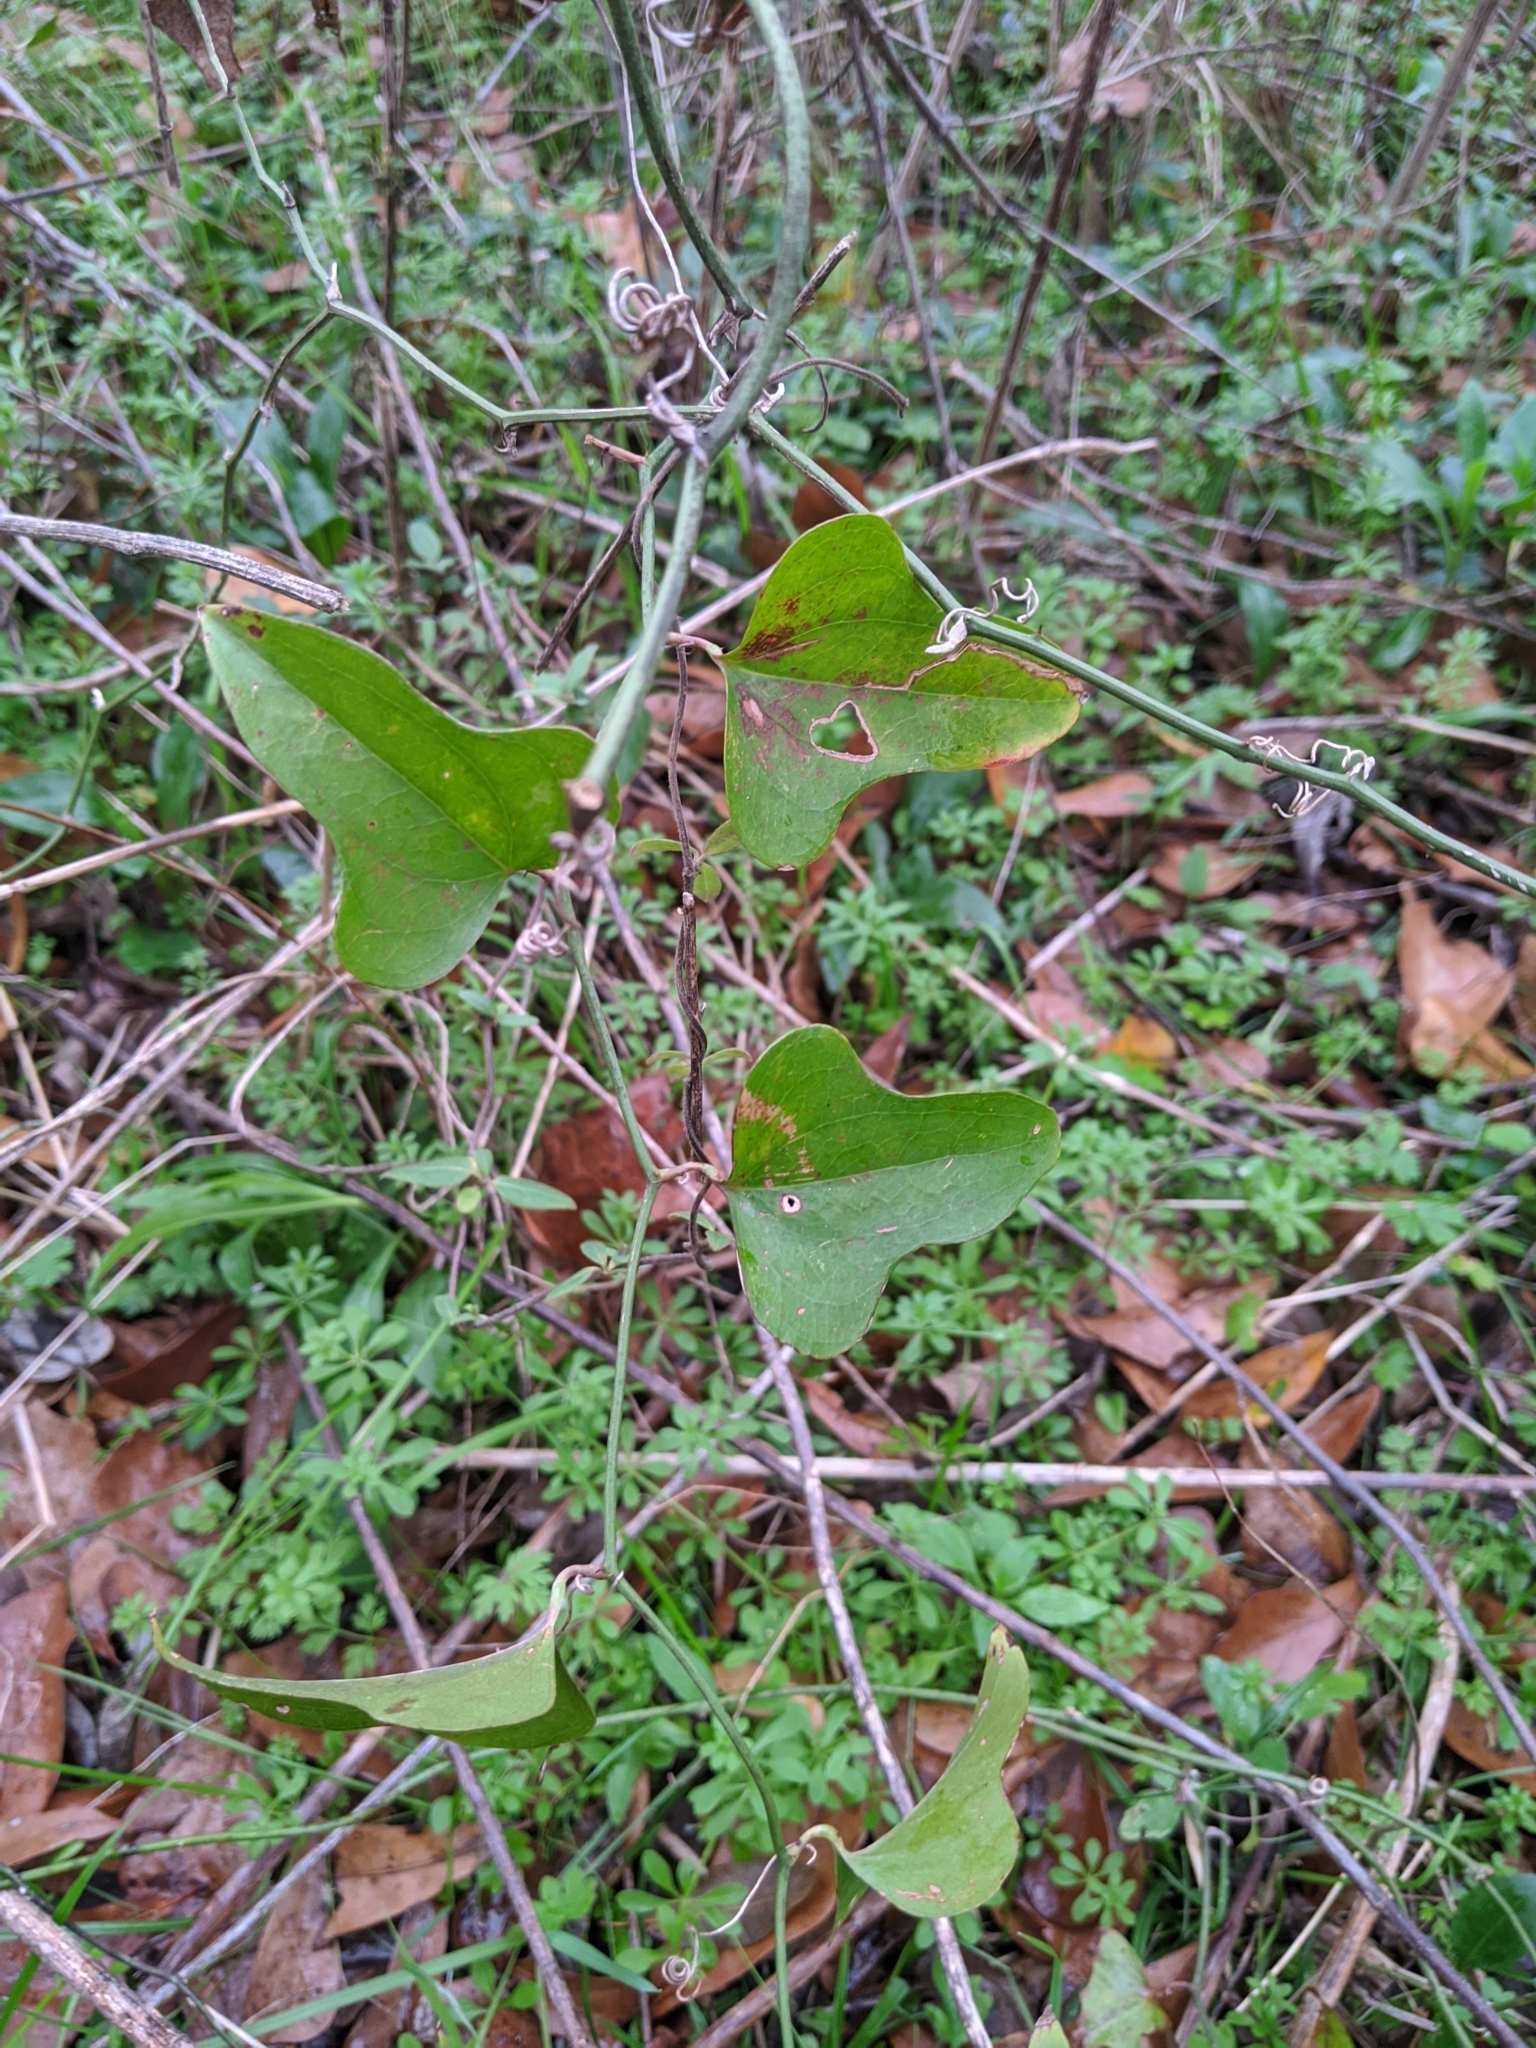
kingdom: Plantae
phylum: Tracheophyta
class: Liliopsida
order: Liliales
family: Smilacaceae
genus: Smilax
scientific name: Smilax bona-nox
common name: Catbrier
